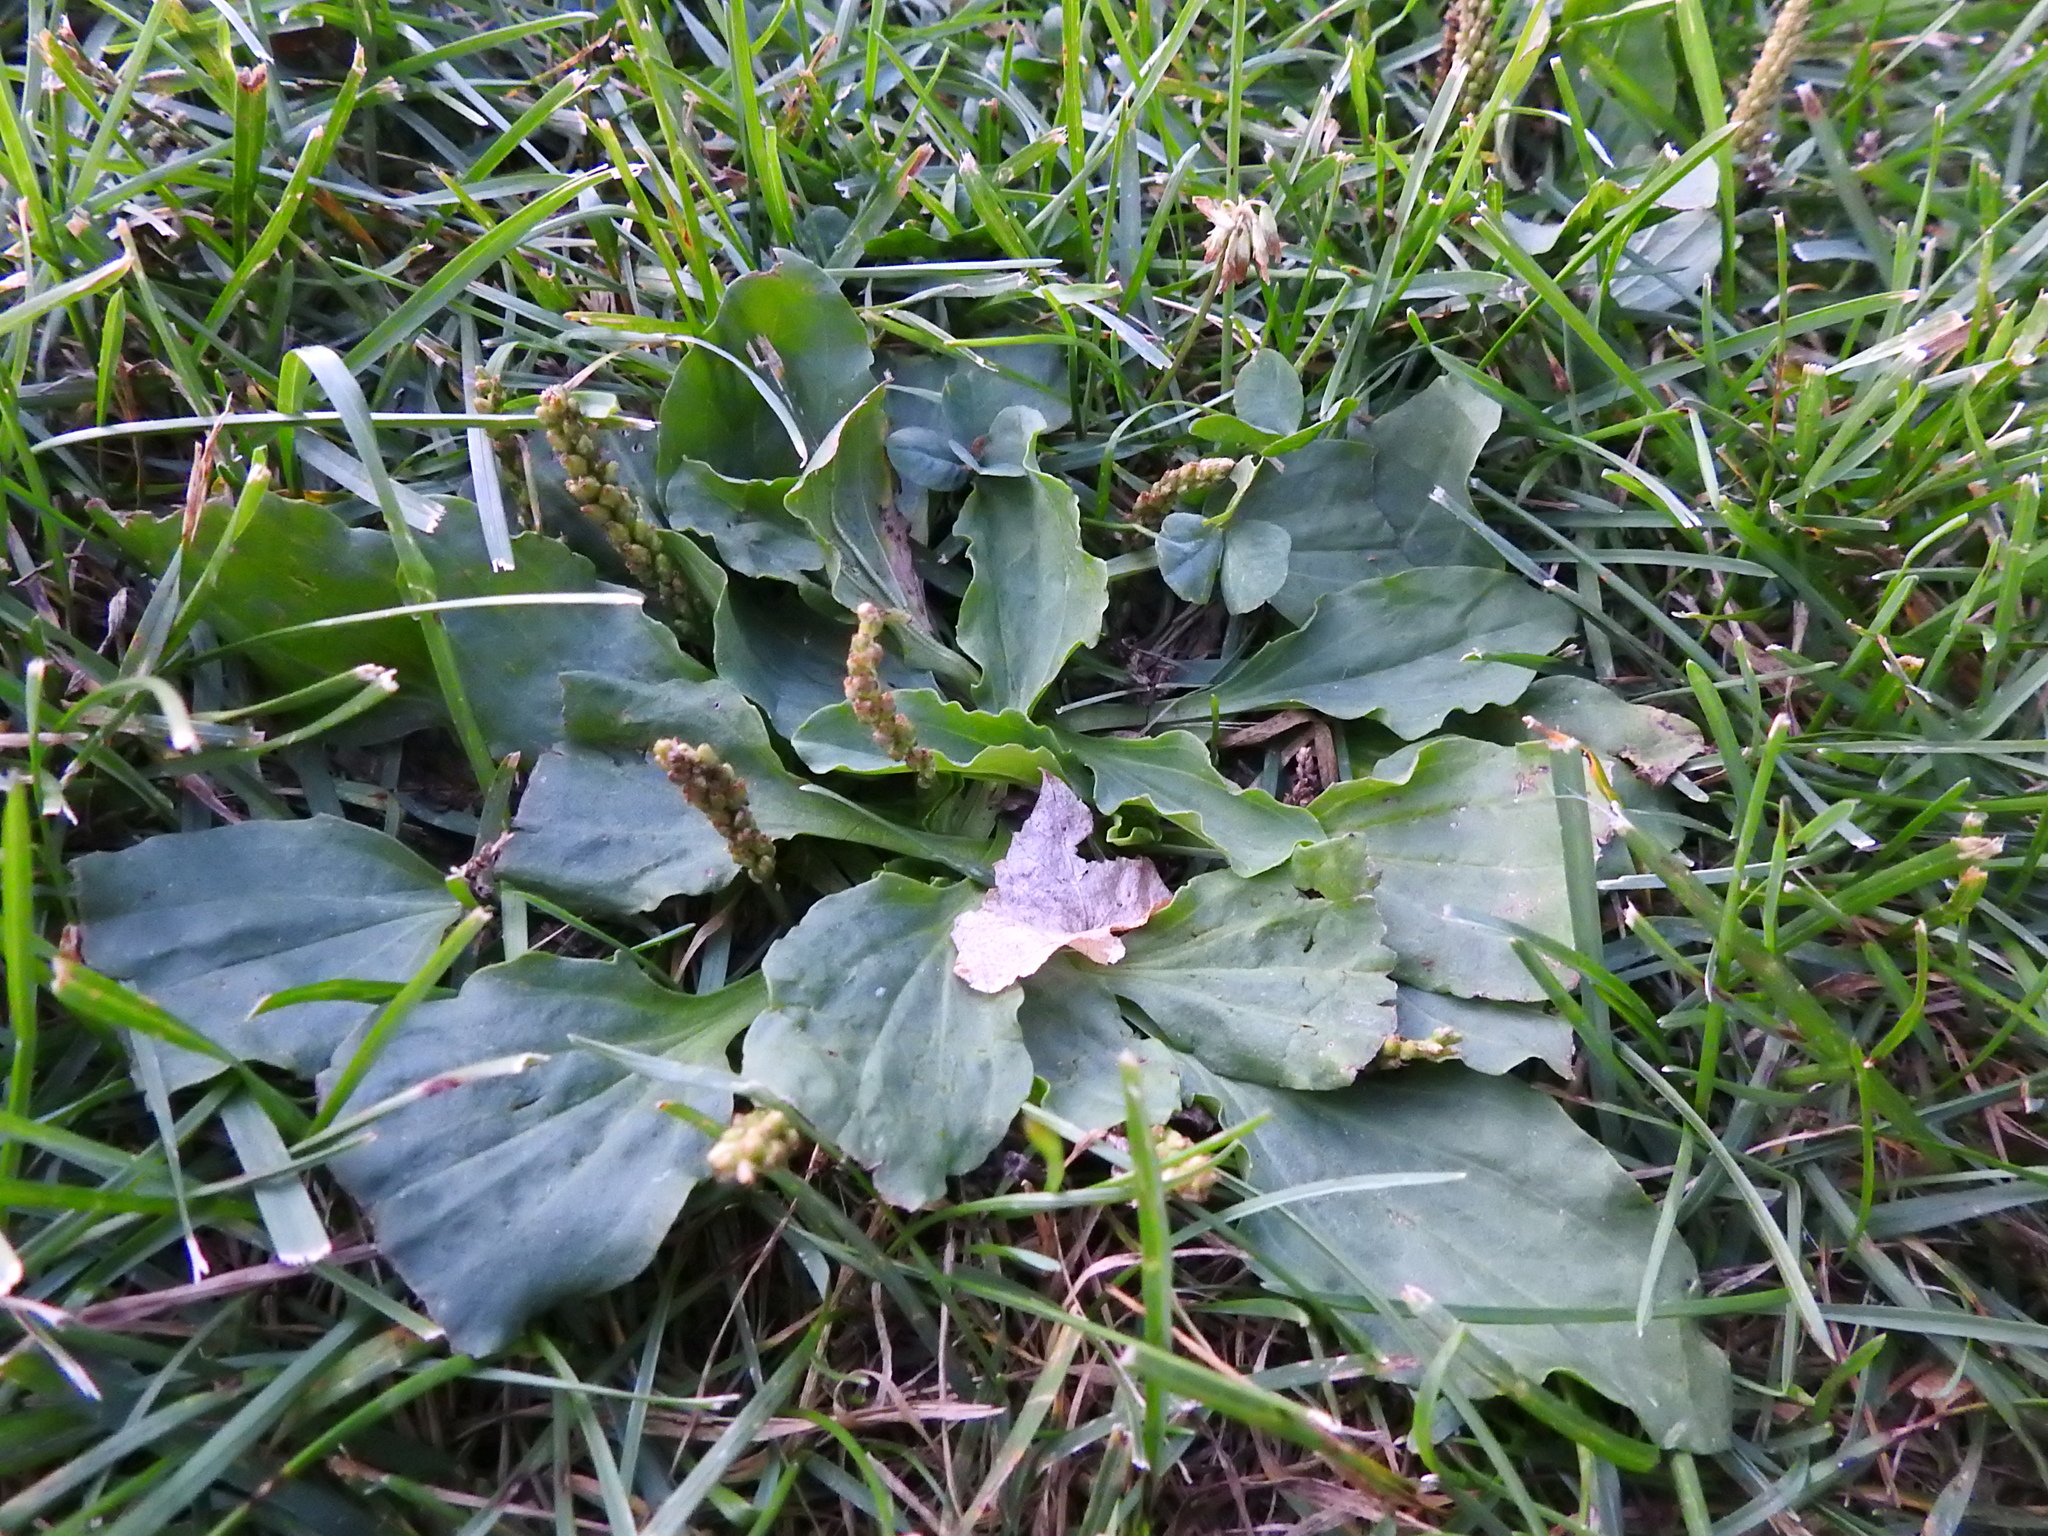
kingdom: Plantae
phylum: Tracheophyta
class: Magnoliopsida
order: Lamiales
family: Plantaginaceae
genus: Plantago
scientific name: Plantago major
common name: Common plantain
